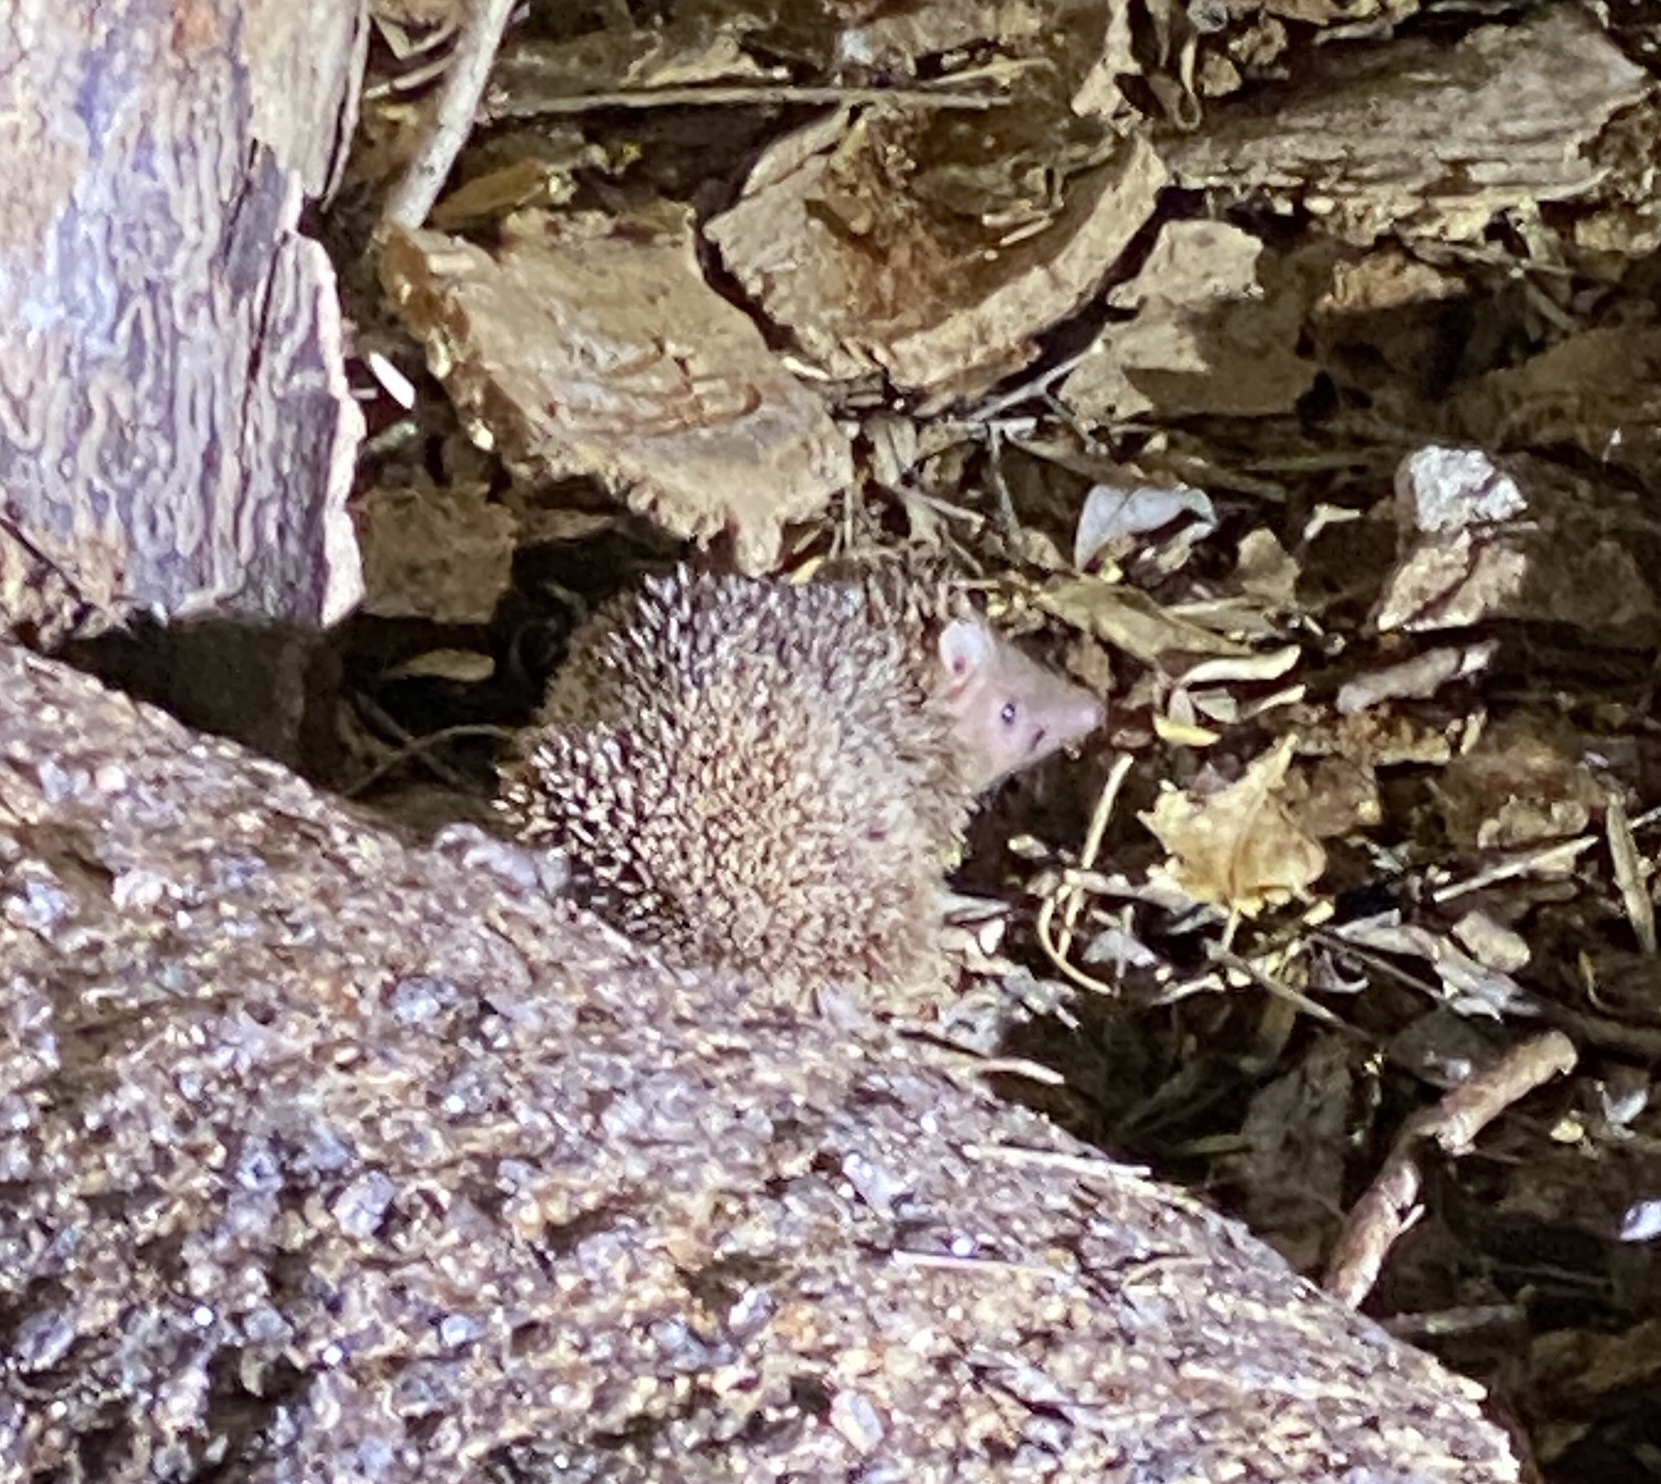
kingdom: Animalia
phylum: Chordata
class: Mammalia
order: Afrosoricida
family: Tenrecidae
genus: Echinops
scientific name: Echinops telfairi
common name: Lesser hedgehog tenrec
